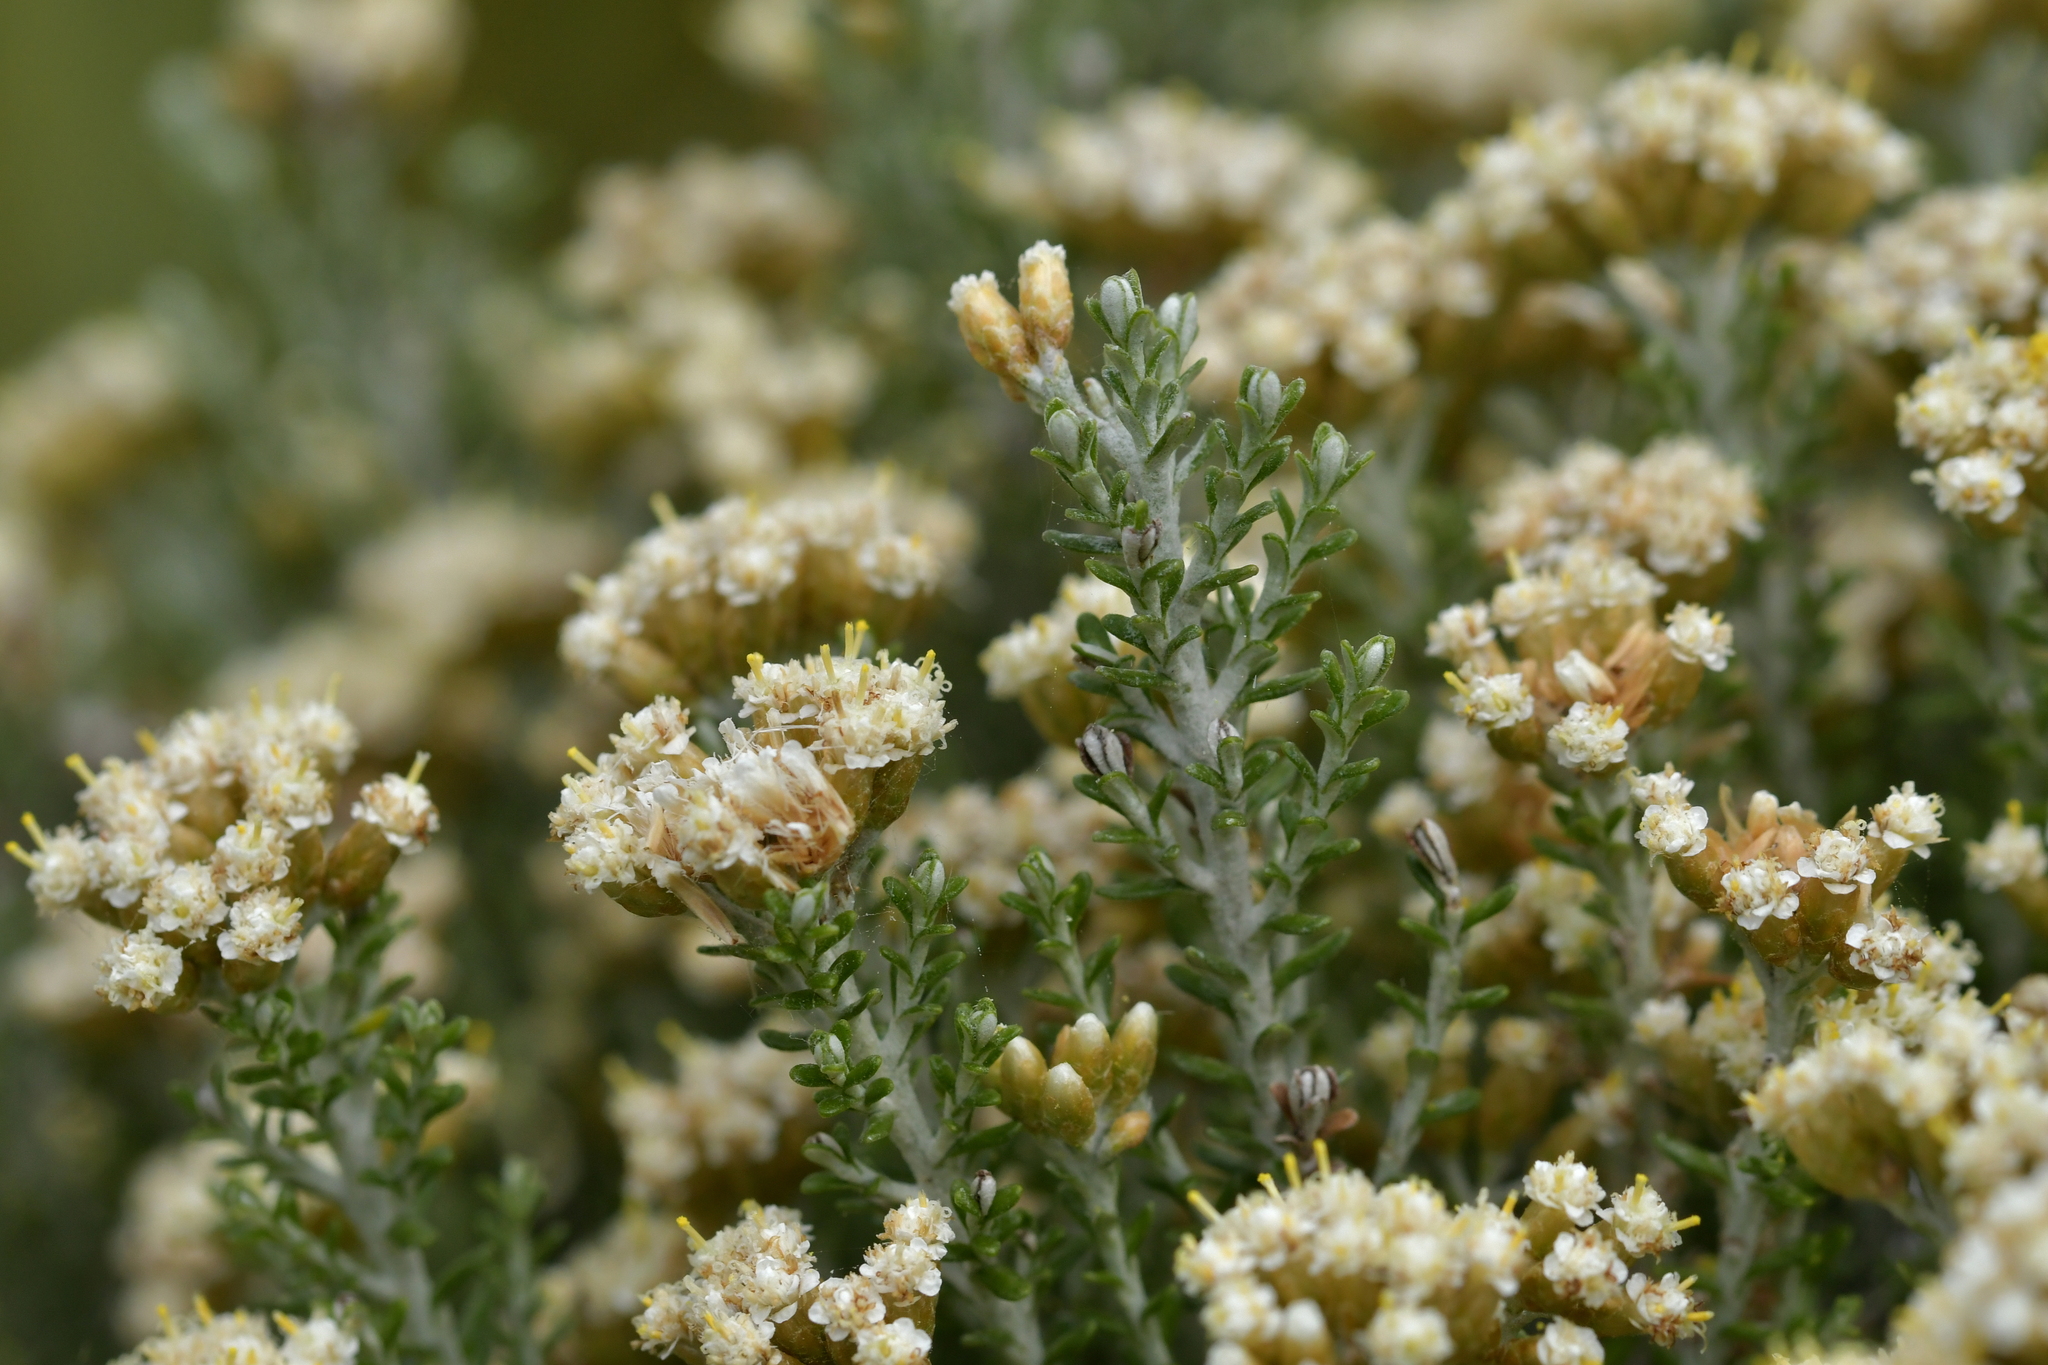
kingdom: Plantae
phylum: Tracheophyta
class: Magnoliopsida
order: Asterales
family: Asteraceae
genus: Ozothamnus
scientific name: Ozothamnus leptophyllus
